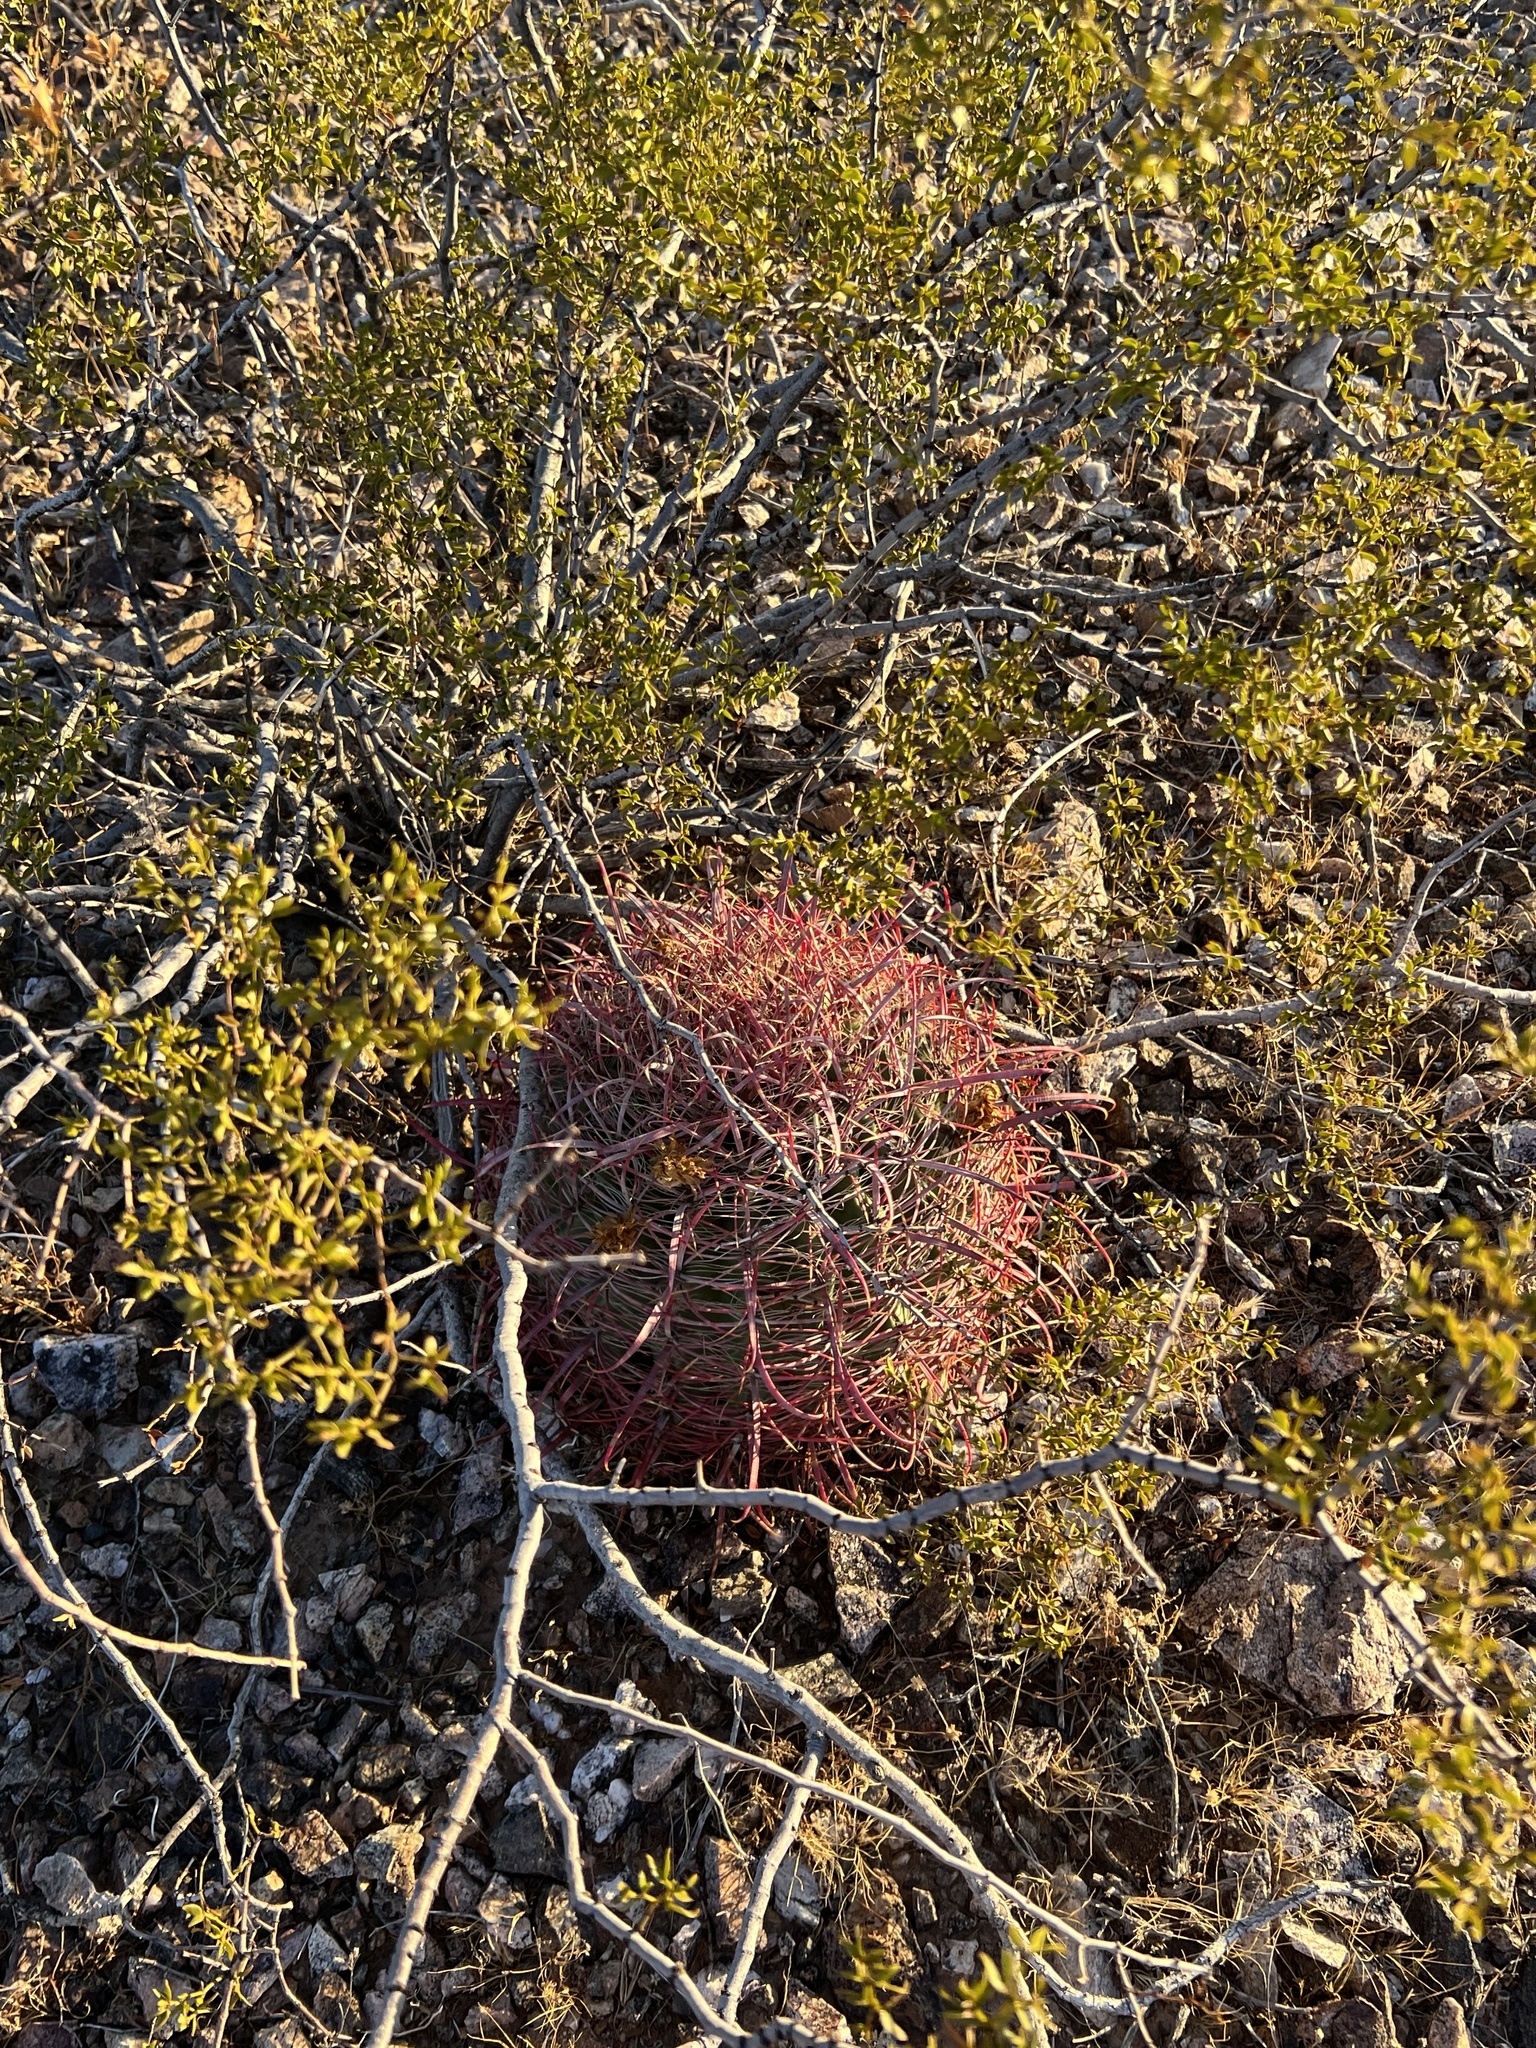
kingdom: Plantae
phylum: Tracheophyta
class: Magnoliopsida
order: Caryophyllales
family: Cactaceae
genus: Ferocactus
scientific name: Ferocactus cylindraceus
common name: California barrel cactus
